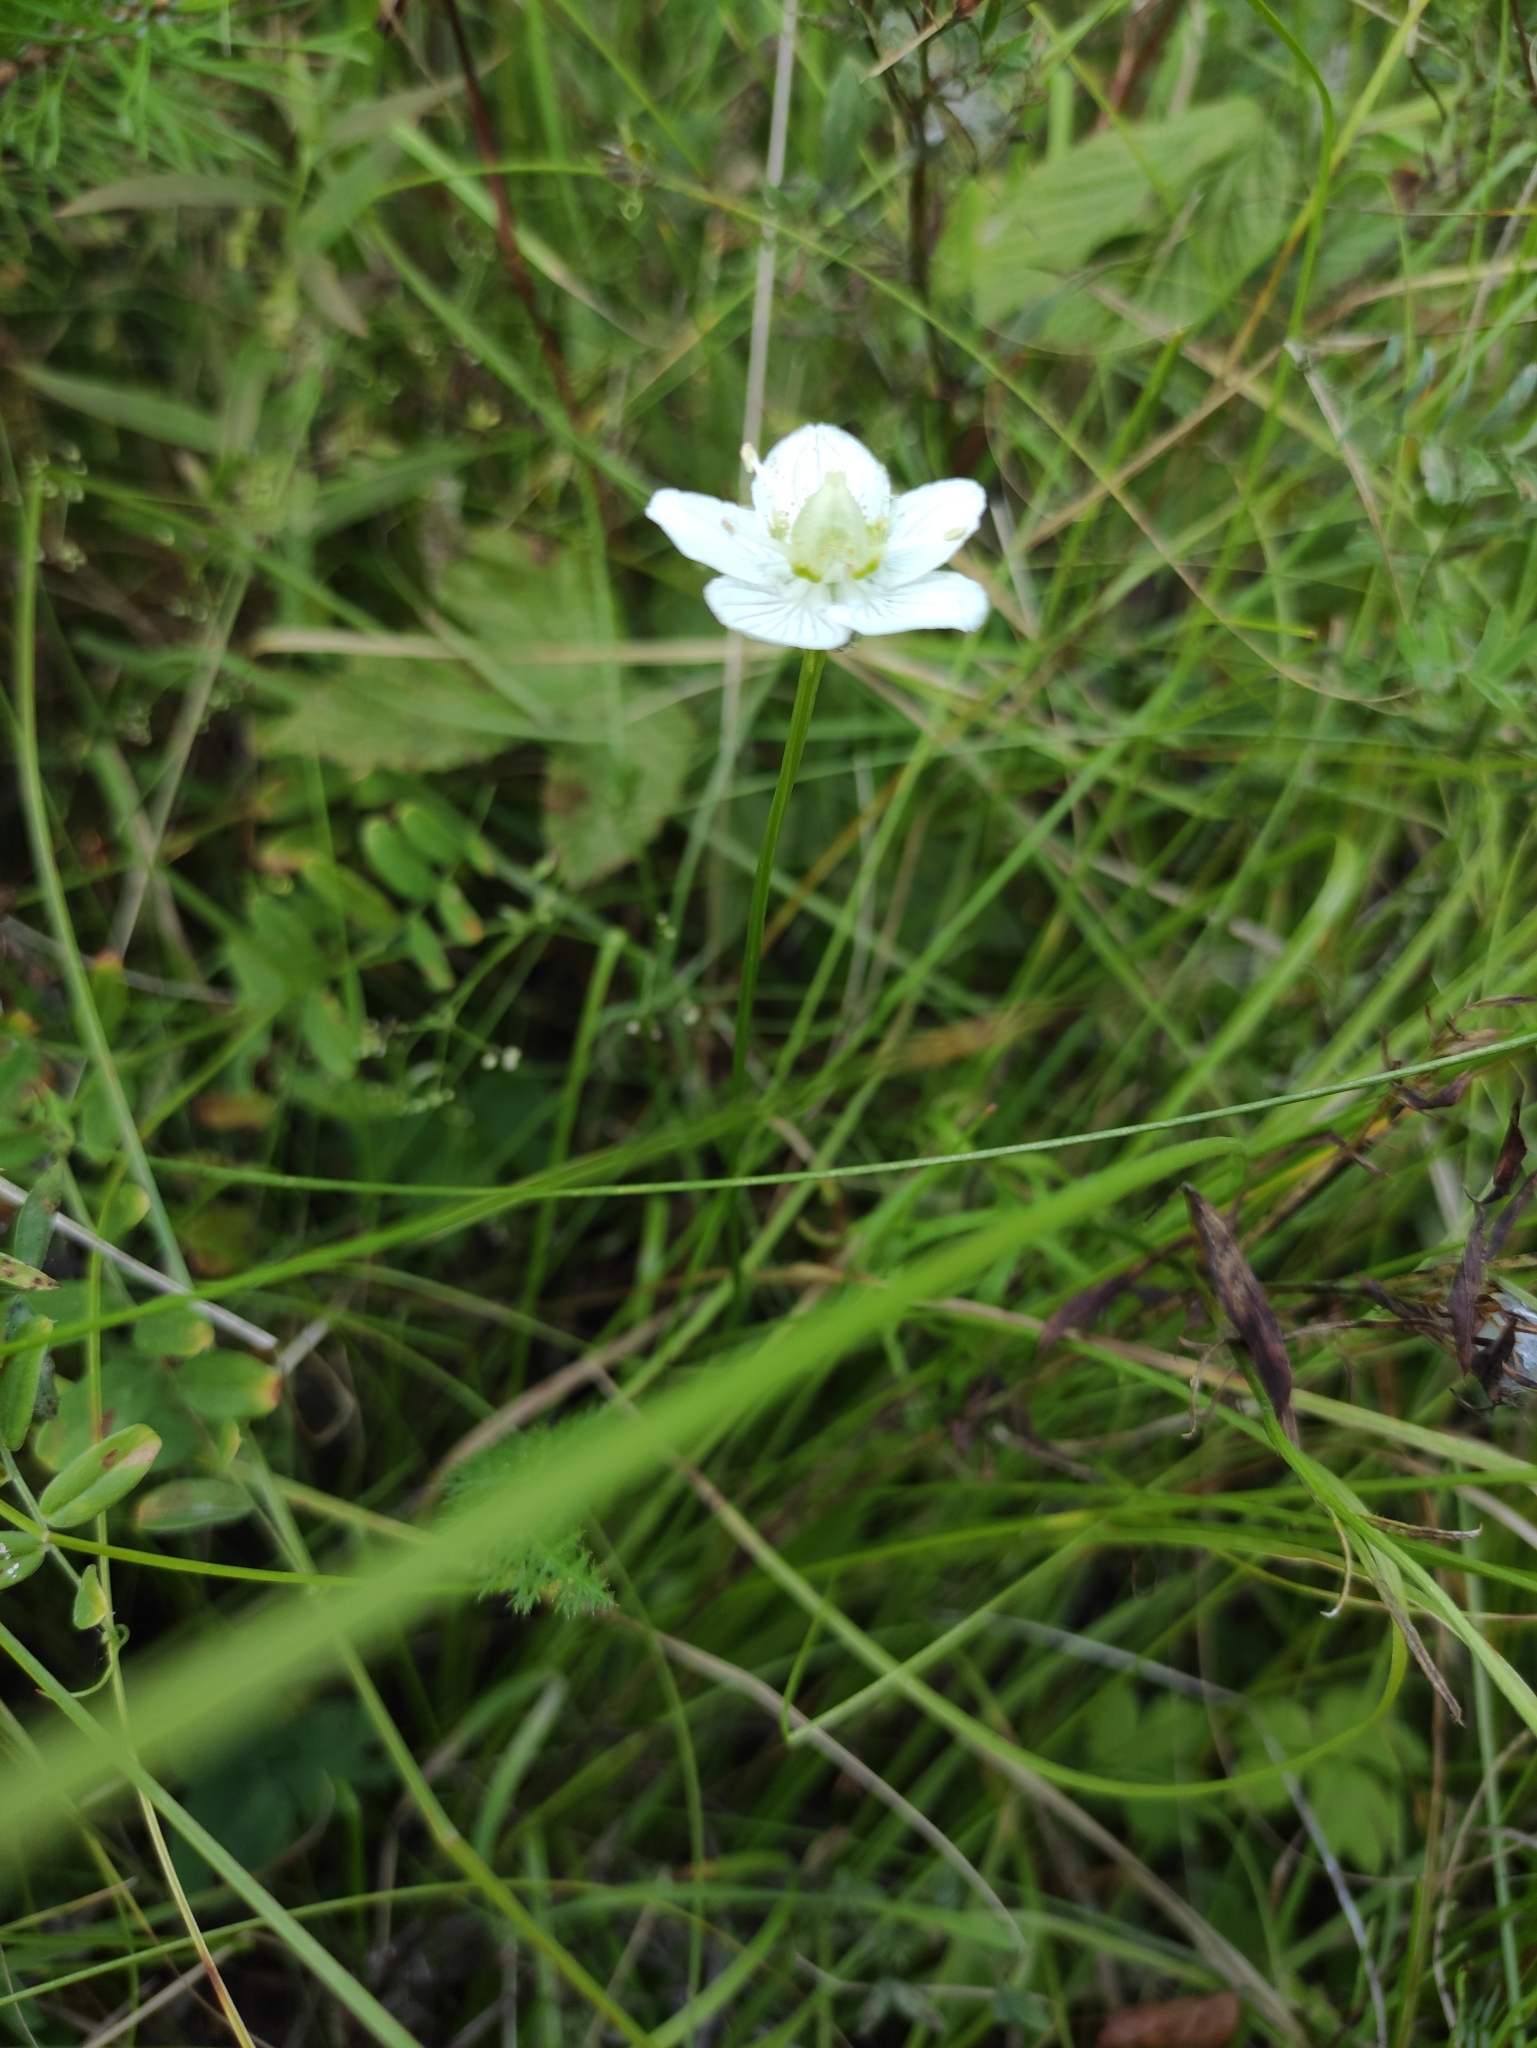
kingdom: Plantae
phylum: Tracheophyta
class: Magnoliopsida
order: Celastrales
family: Parnassiaceae
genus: Parnassia
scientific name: Parnassia palustris
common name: Grass-of-parnassus
